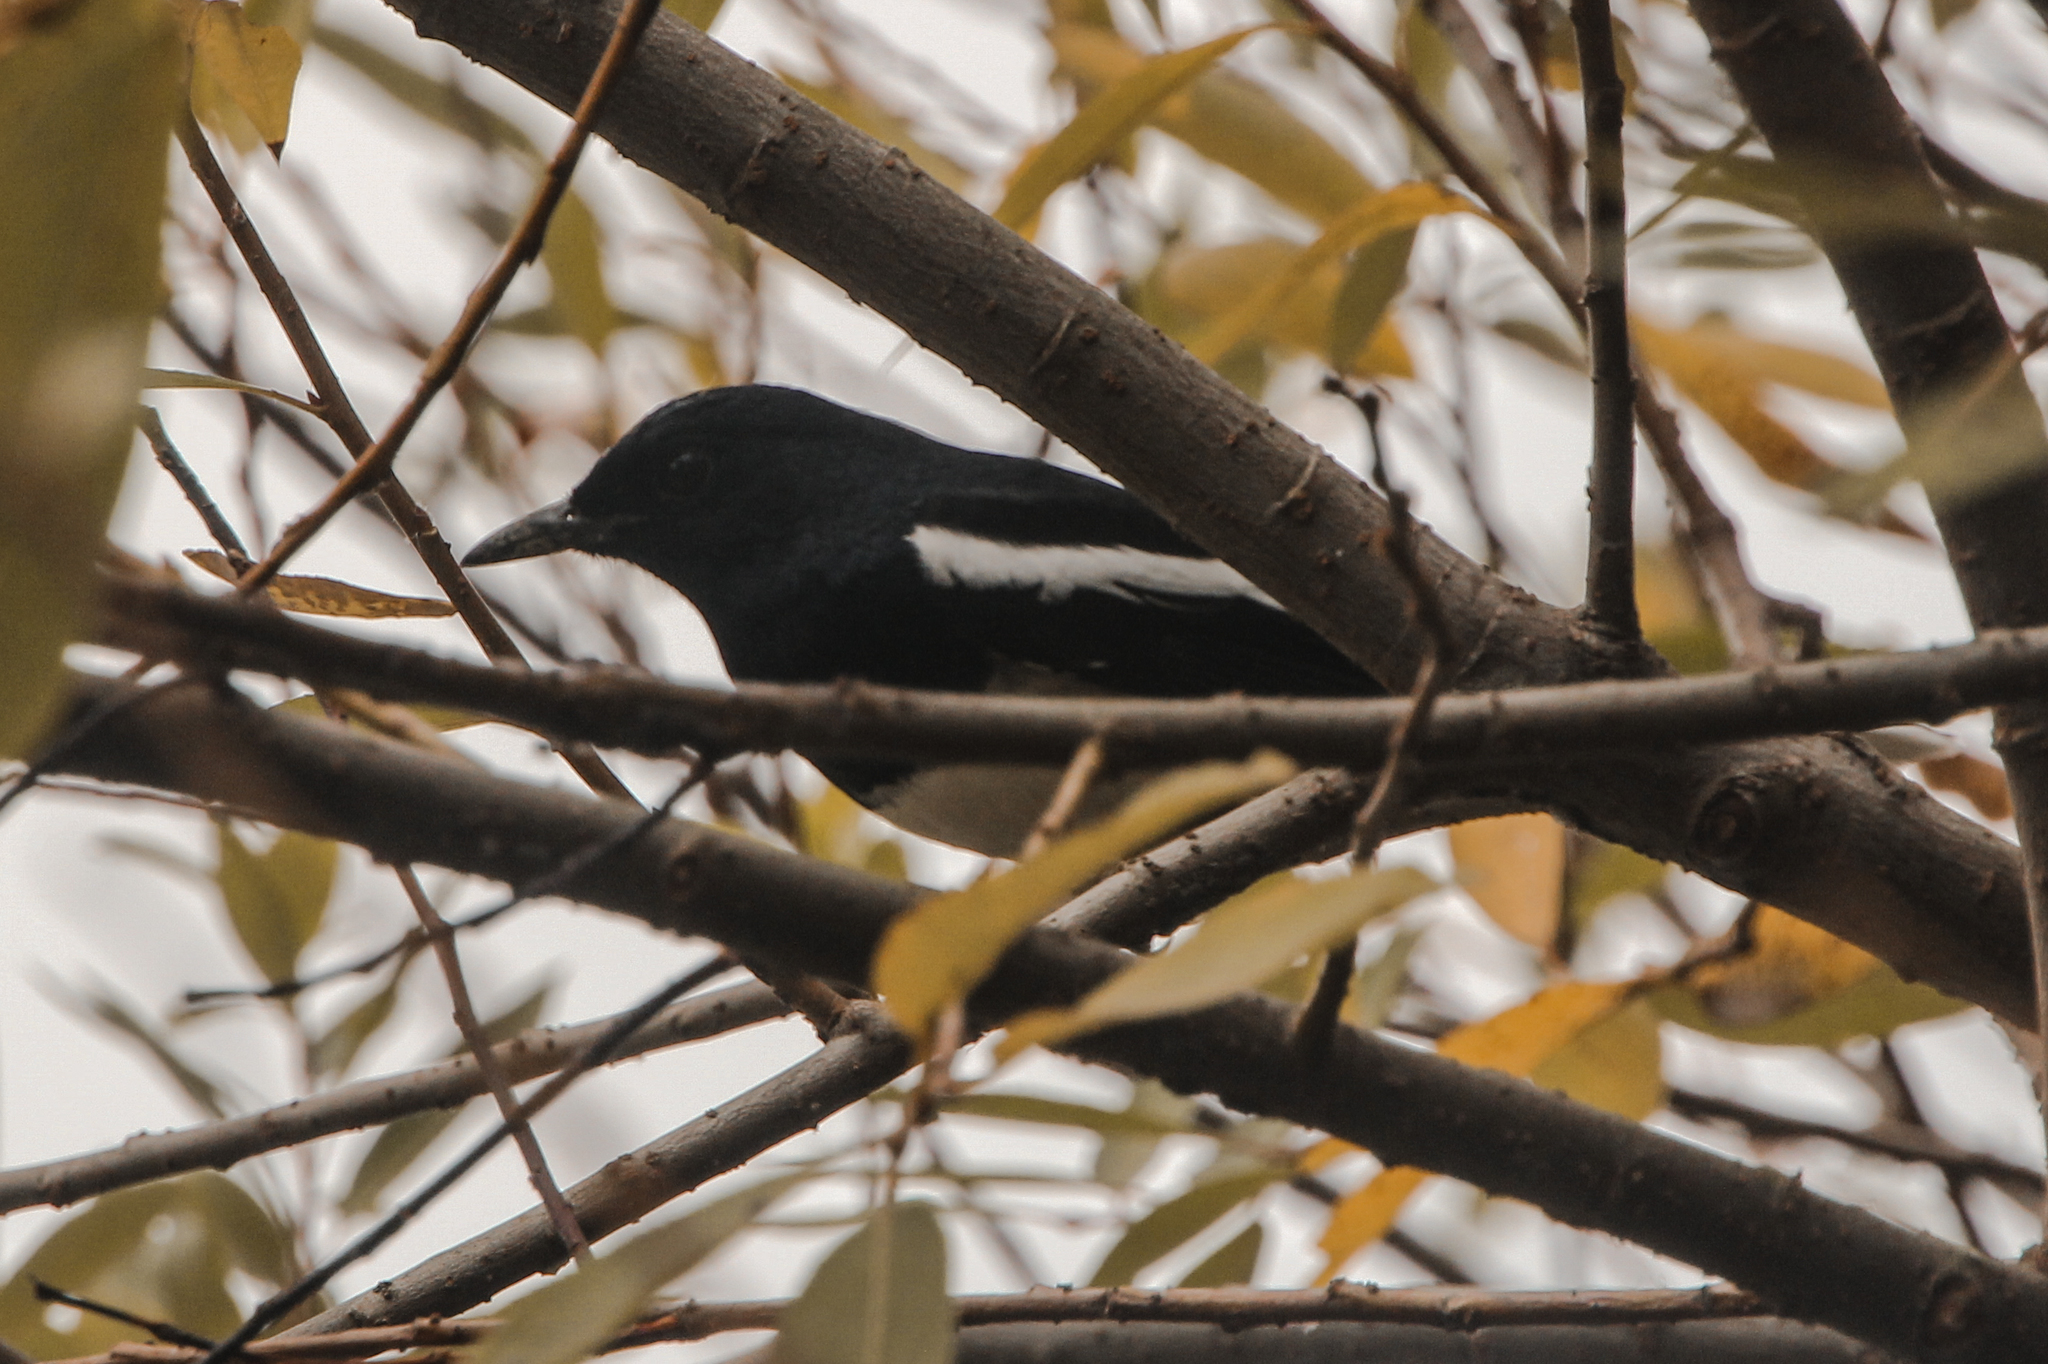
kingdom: Animalia
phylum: Chordata
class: Aves
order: Passeriformes
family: Muscicapidae
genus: Copsychus
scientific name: Copsychus saularis
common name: Oriental magpie-robin
